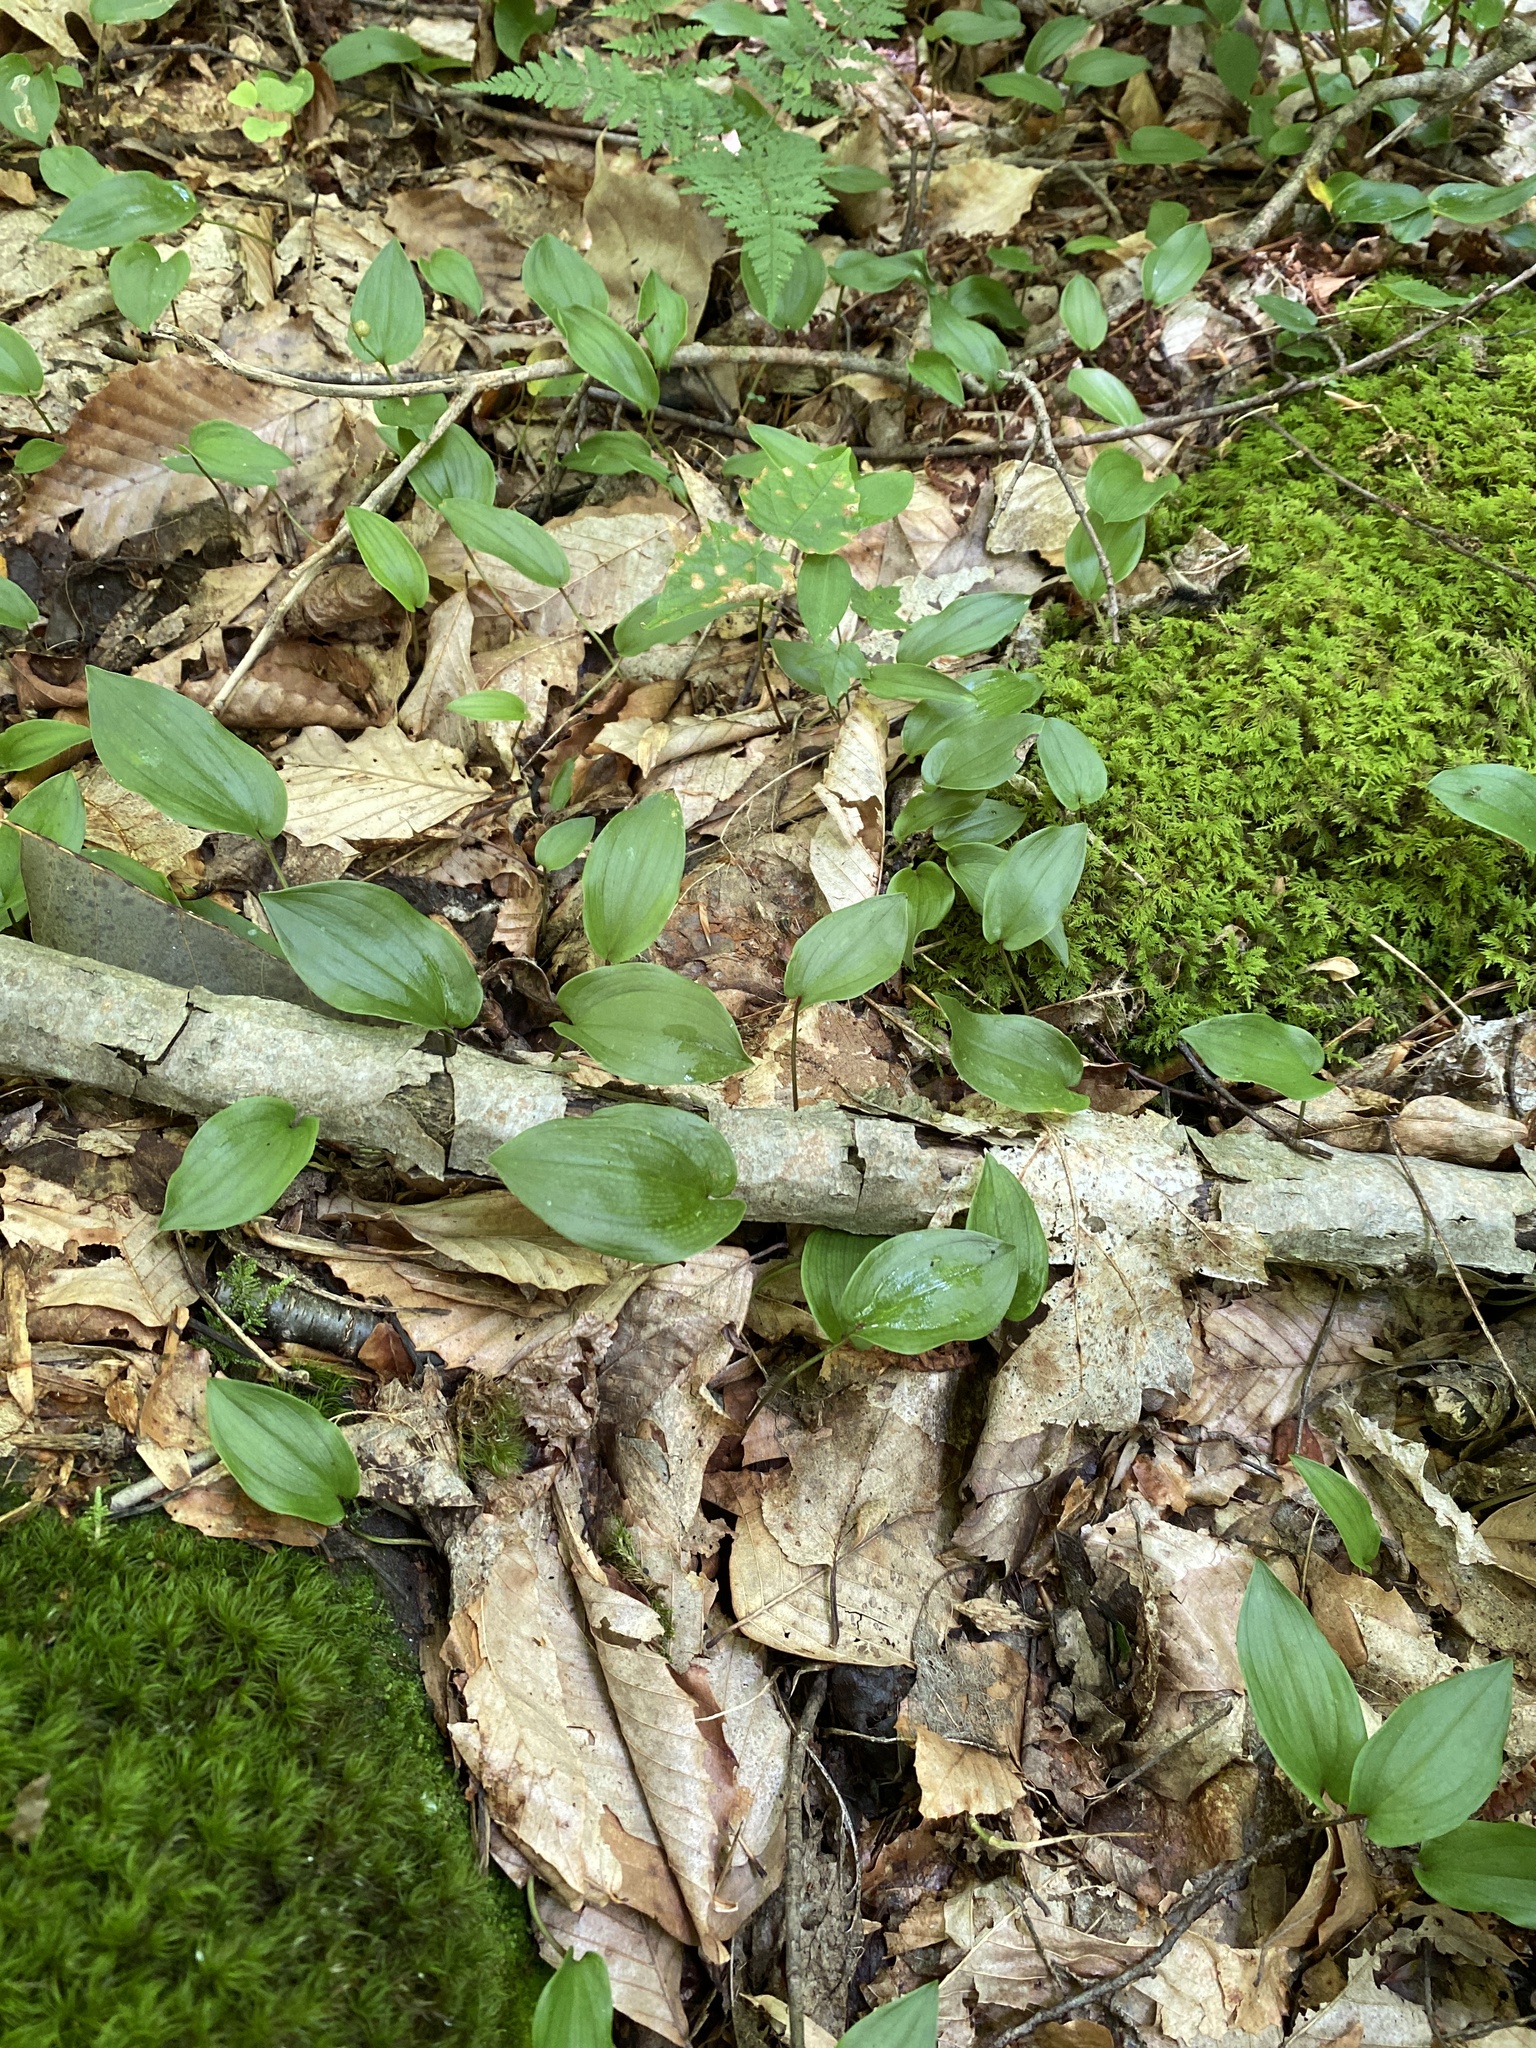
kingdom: Plantae
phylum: Tracheophyta
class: Liliopsida
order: Asparagales
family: Asparagaceae
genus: Maianthemum
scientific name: Maianthemum canadense
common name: False lily-of-the-valley
